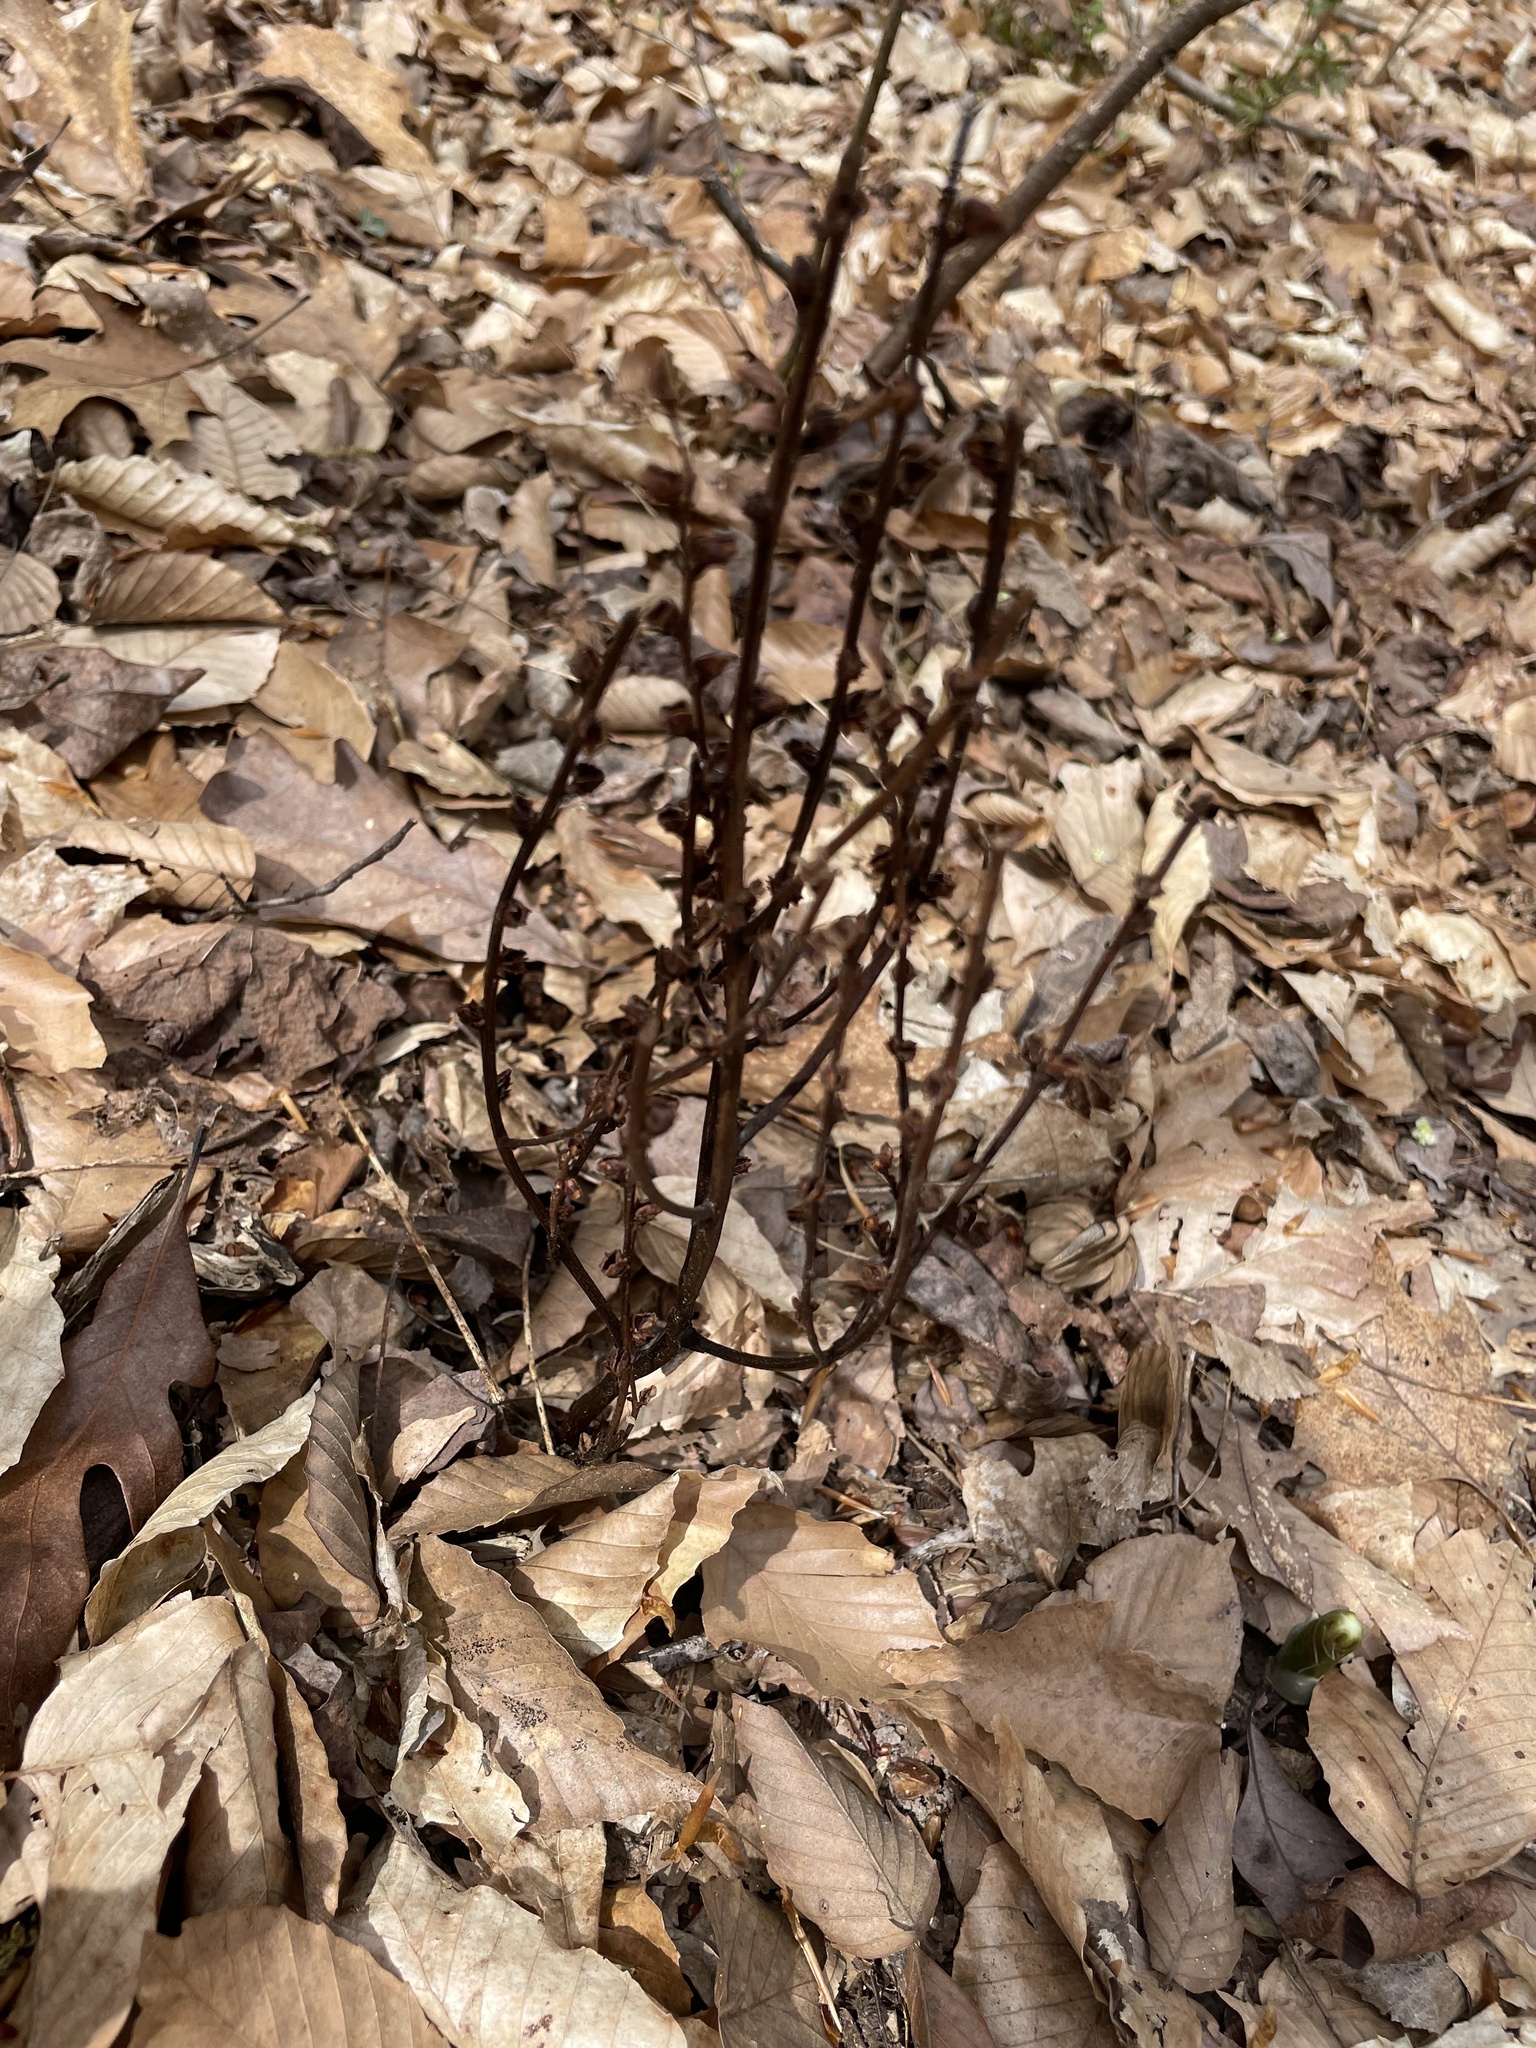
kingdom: Plantae
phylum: Tracheophyta
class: Magnoliopsida
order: Lamiales
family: Orobanchaceae
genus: Epifagus
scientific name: Epifagus virginiana
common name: Beechdrops
